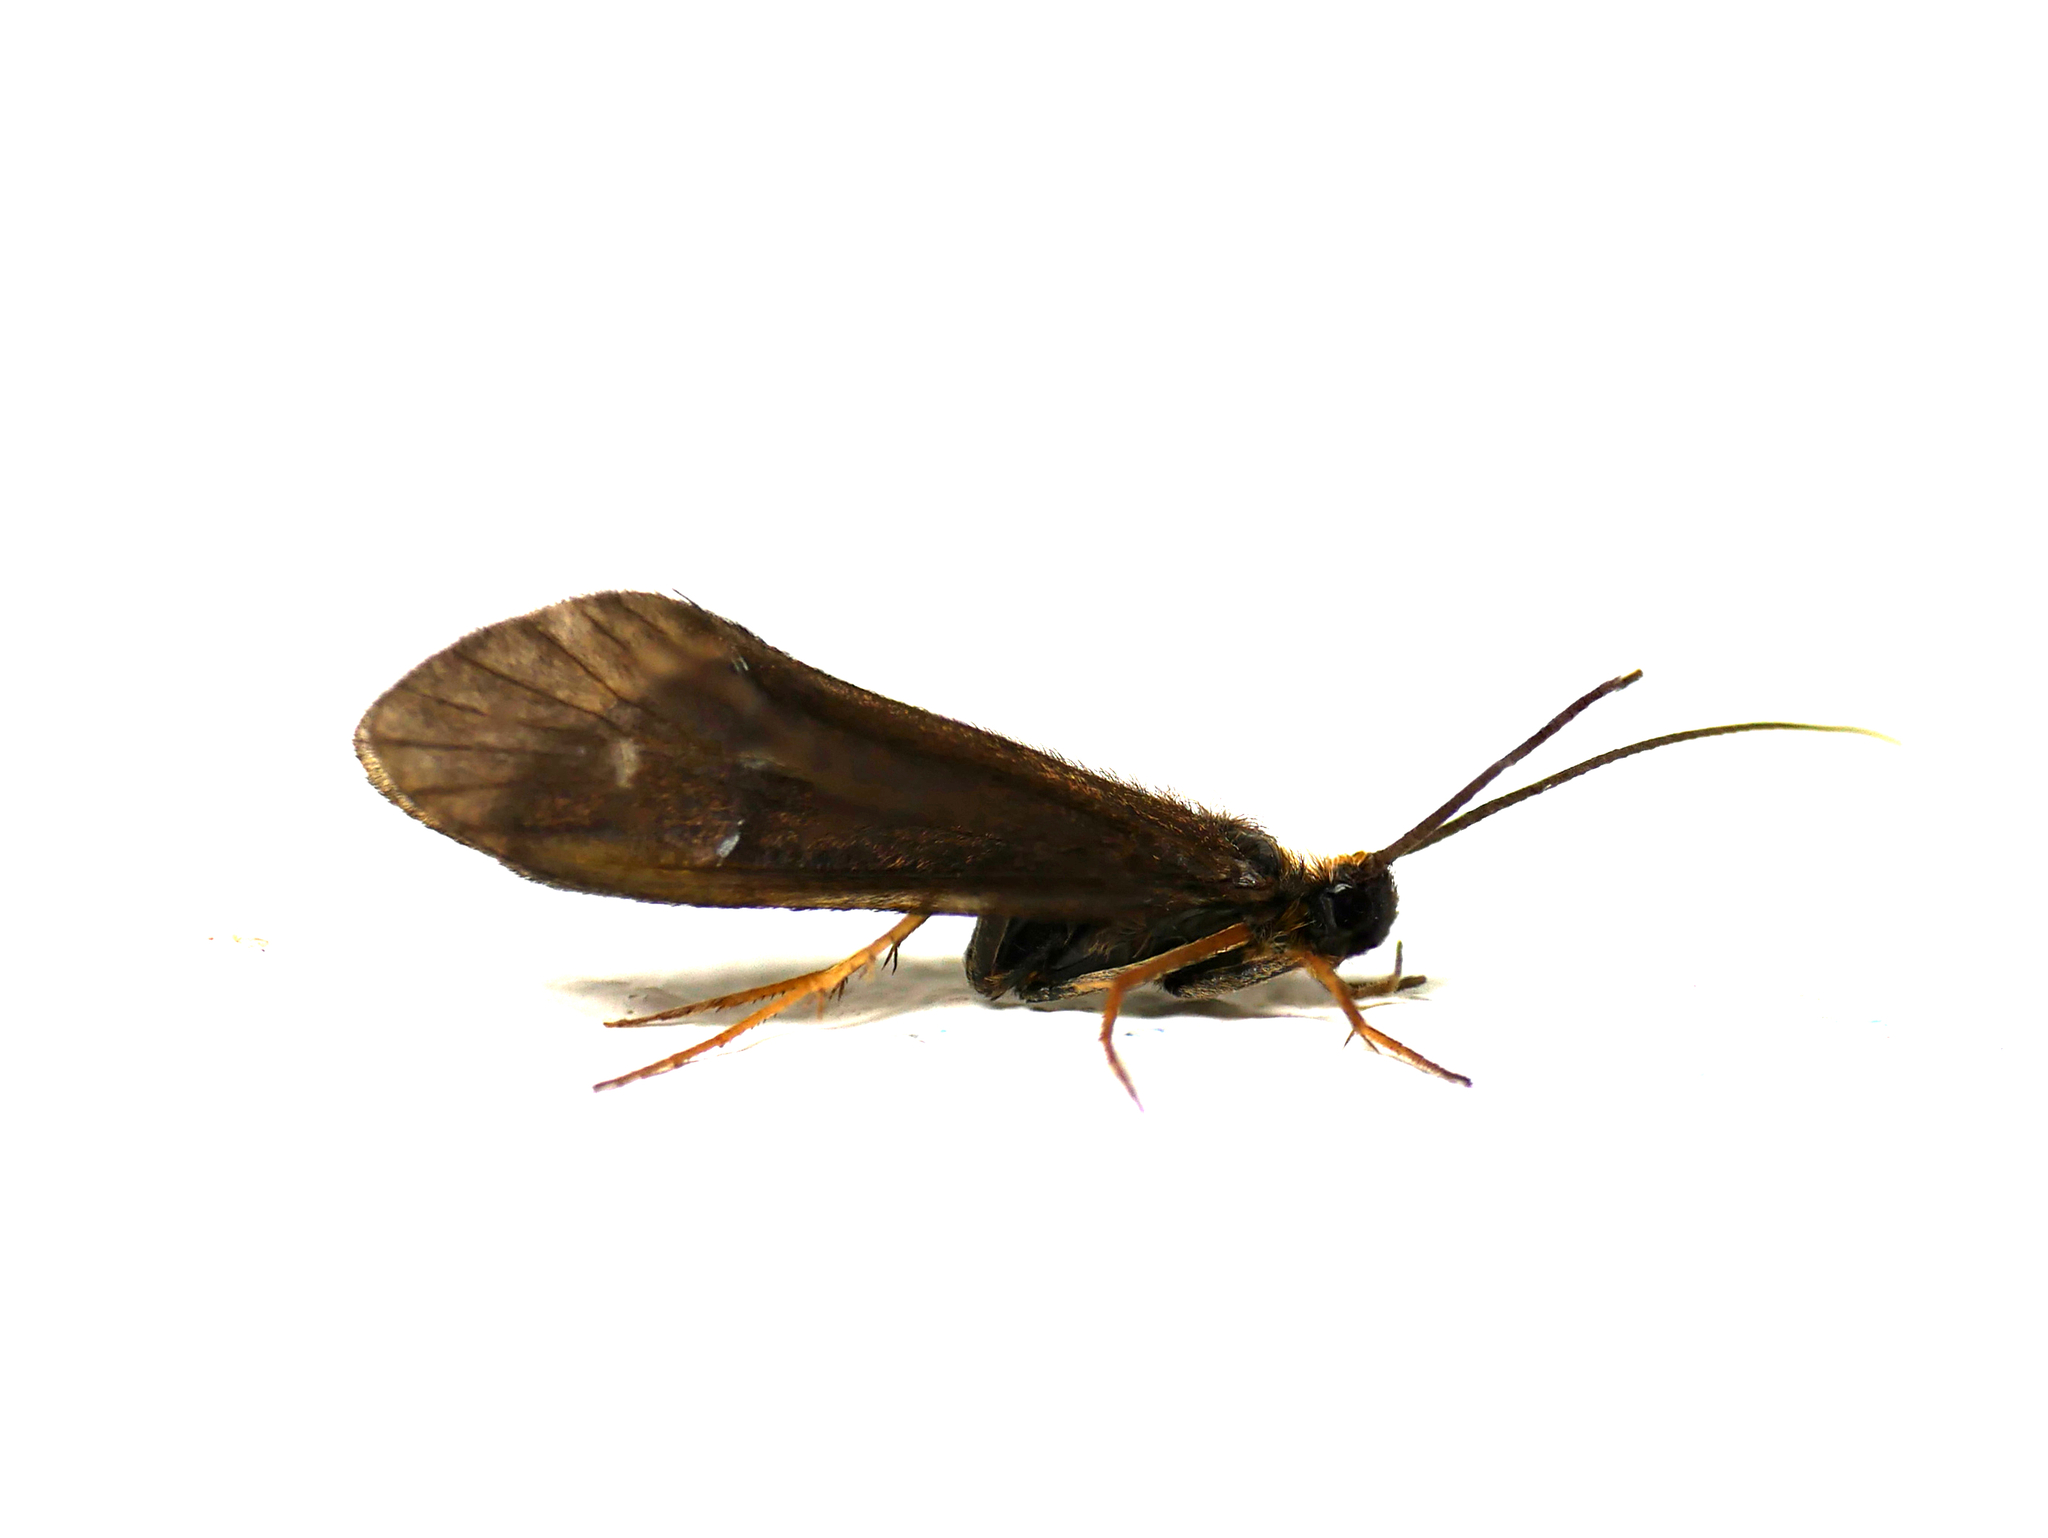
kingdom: Animalia
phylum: Arthropoda
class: Insecta
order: Trichoptera
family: Sericostomatidae
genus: Sericostoma
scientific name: Sericostoma personatum
